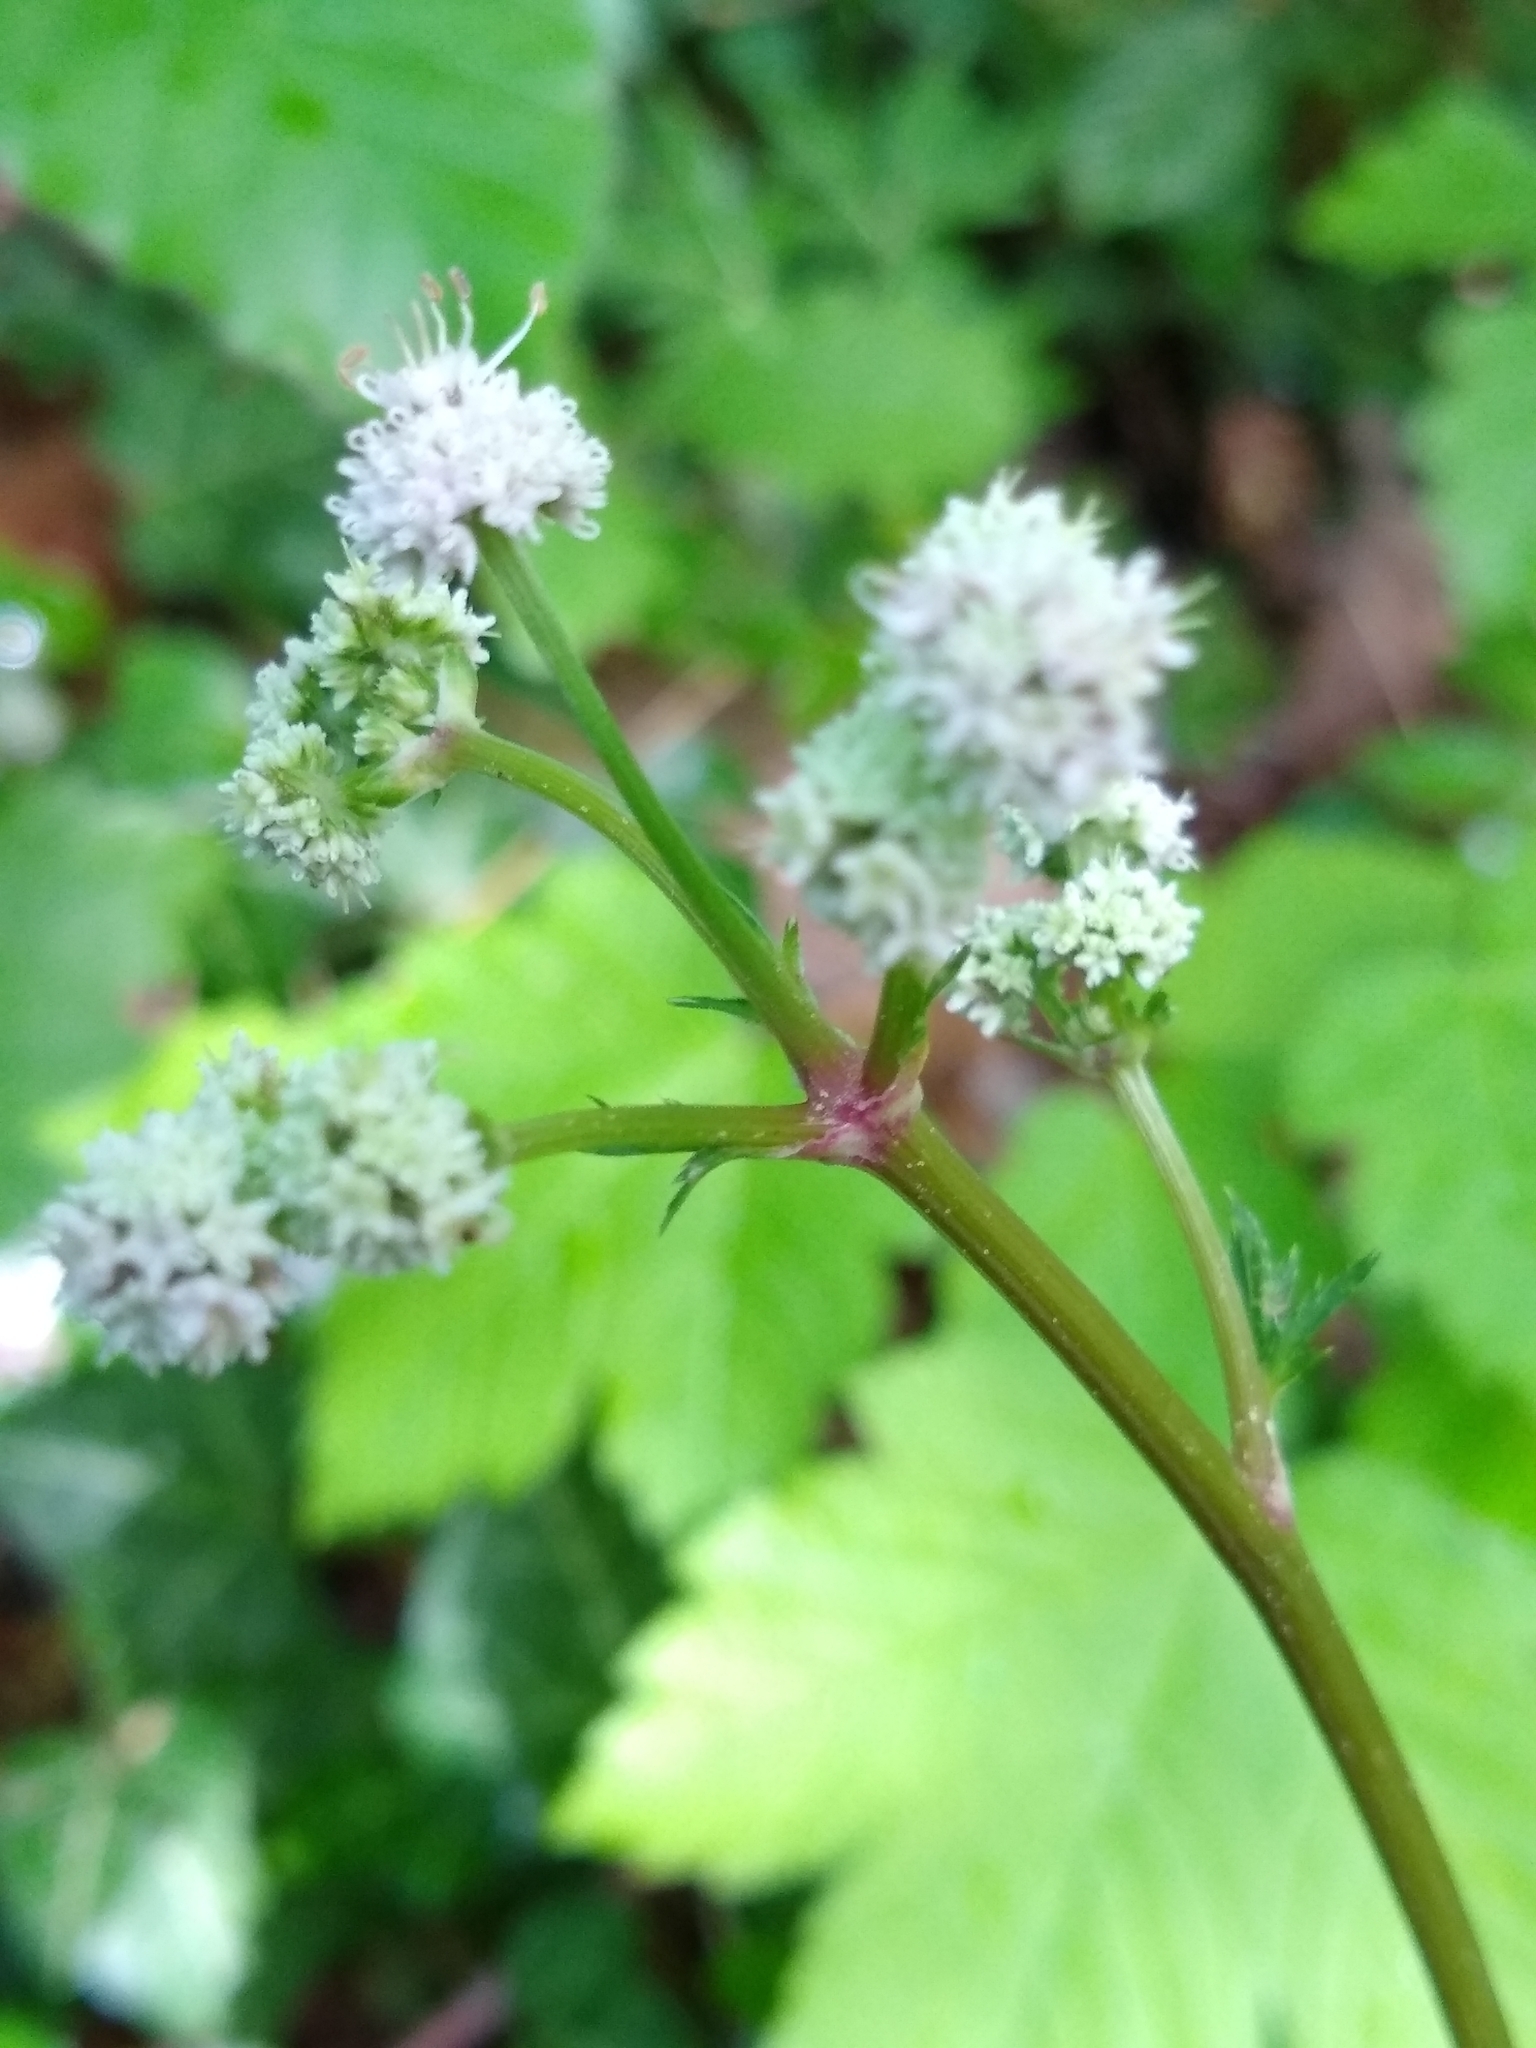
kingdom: Plantae
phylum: Tracheophyta
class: Magnoliopsida
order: Apiales
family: Apiaceae
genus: Sanicula
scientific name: Sanicula europaea
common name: Sanicle
